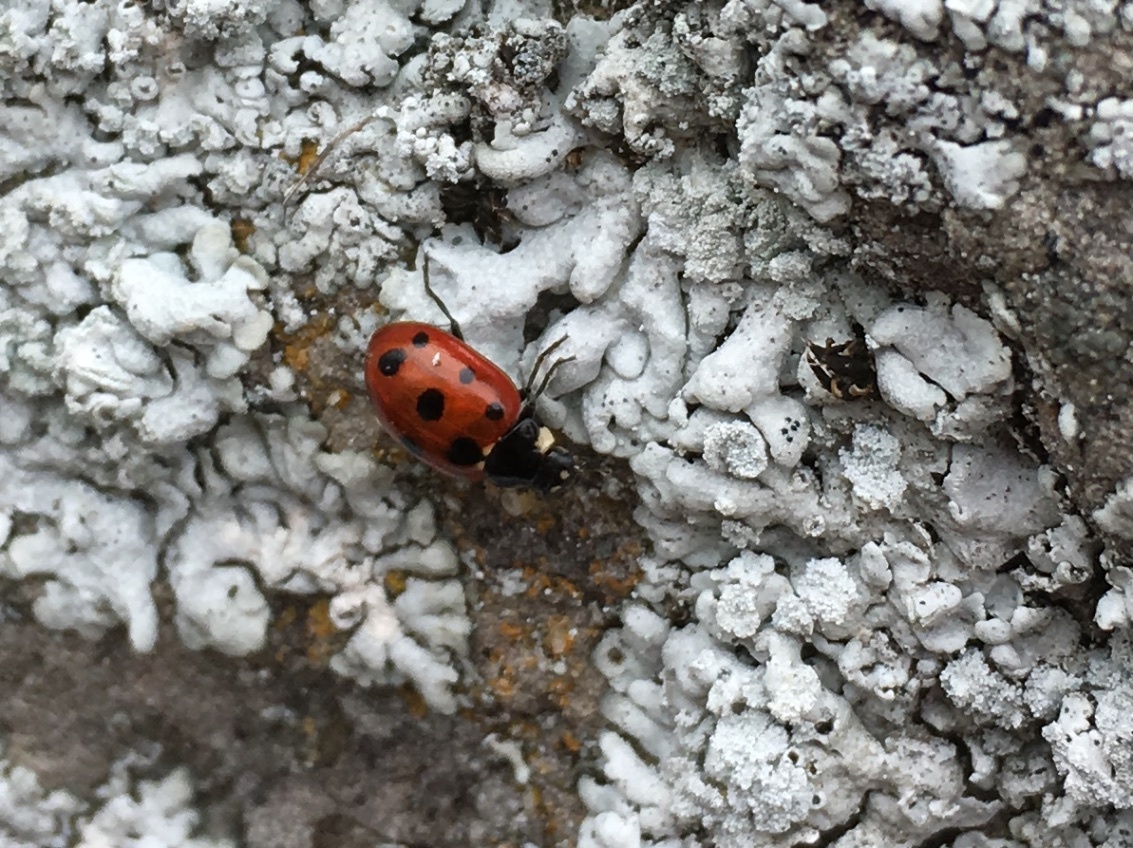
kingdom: Animalia
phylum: Arthropoda
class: Insecta
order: Coleoptera
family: Coccinellidae
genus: Coccinella
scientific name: Coccinella undecimpunctata
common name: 11-spot ladybird
